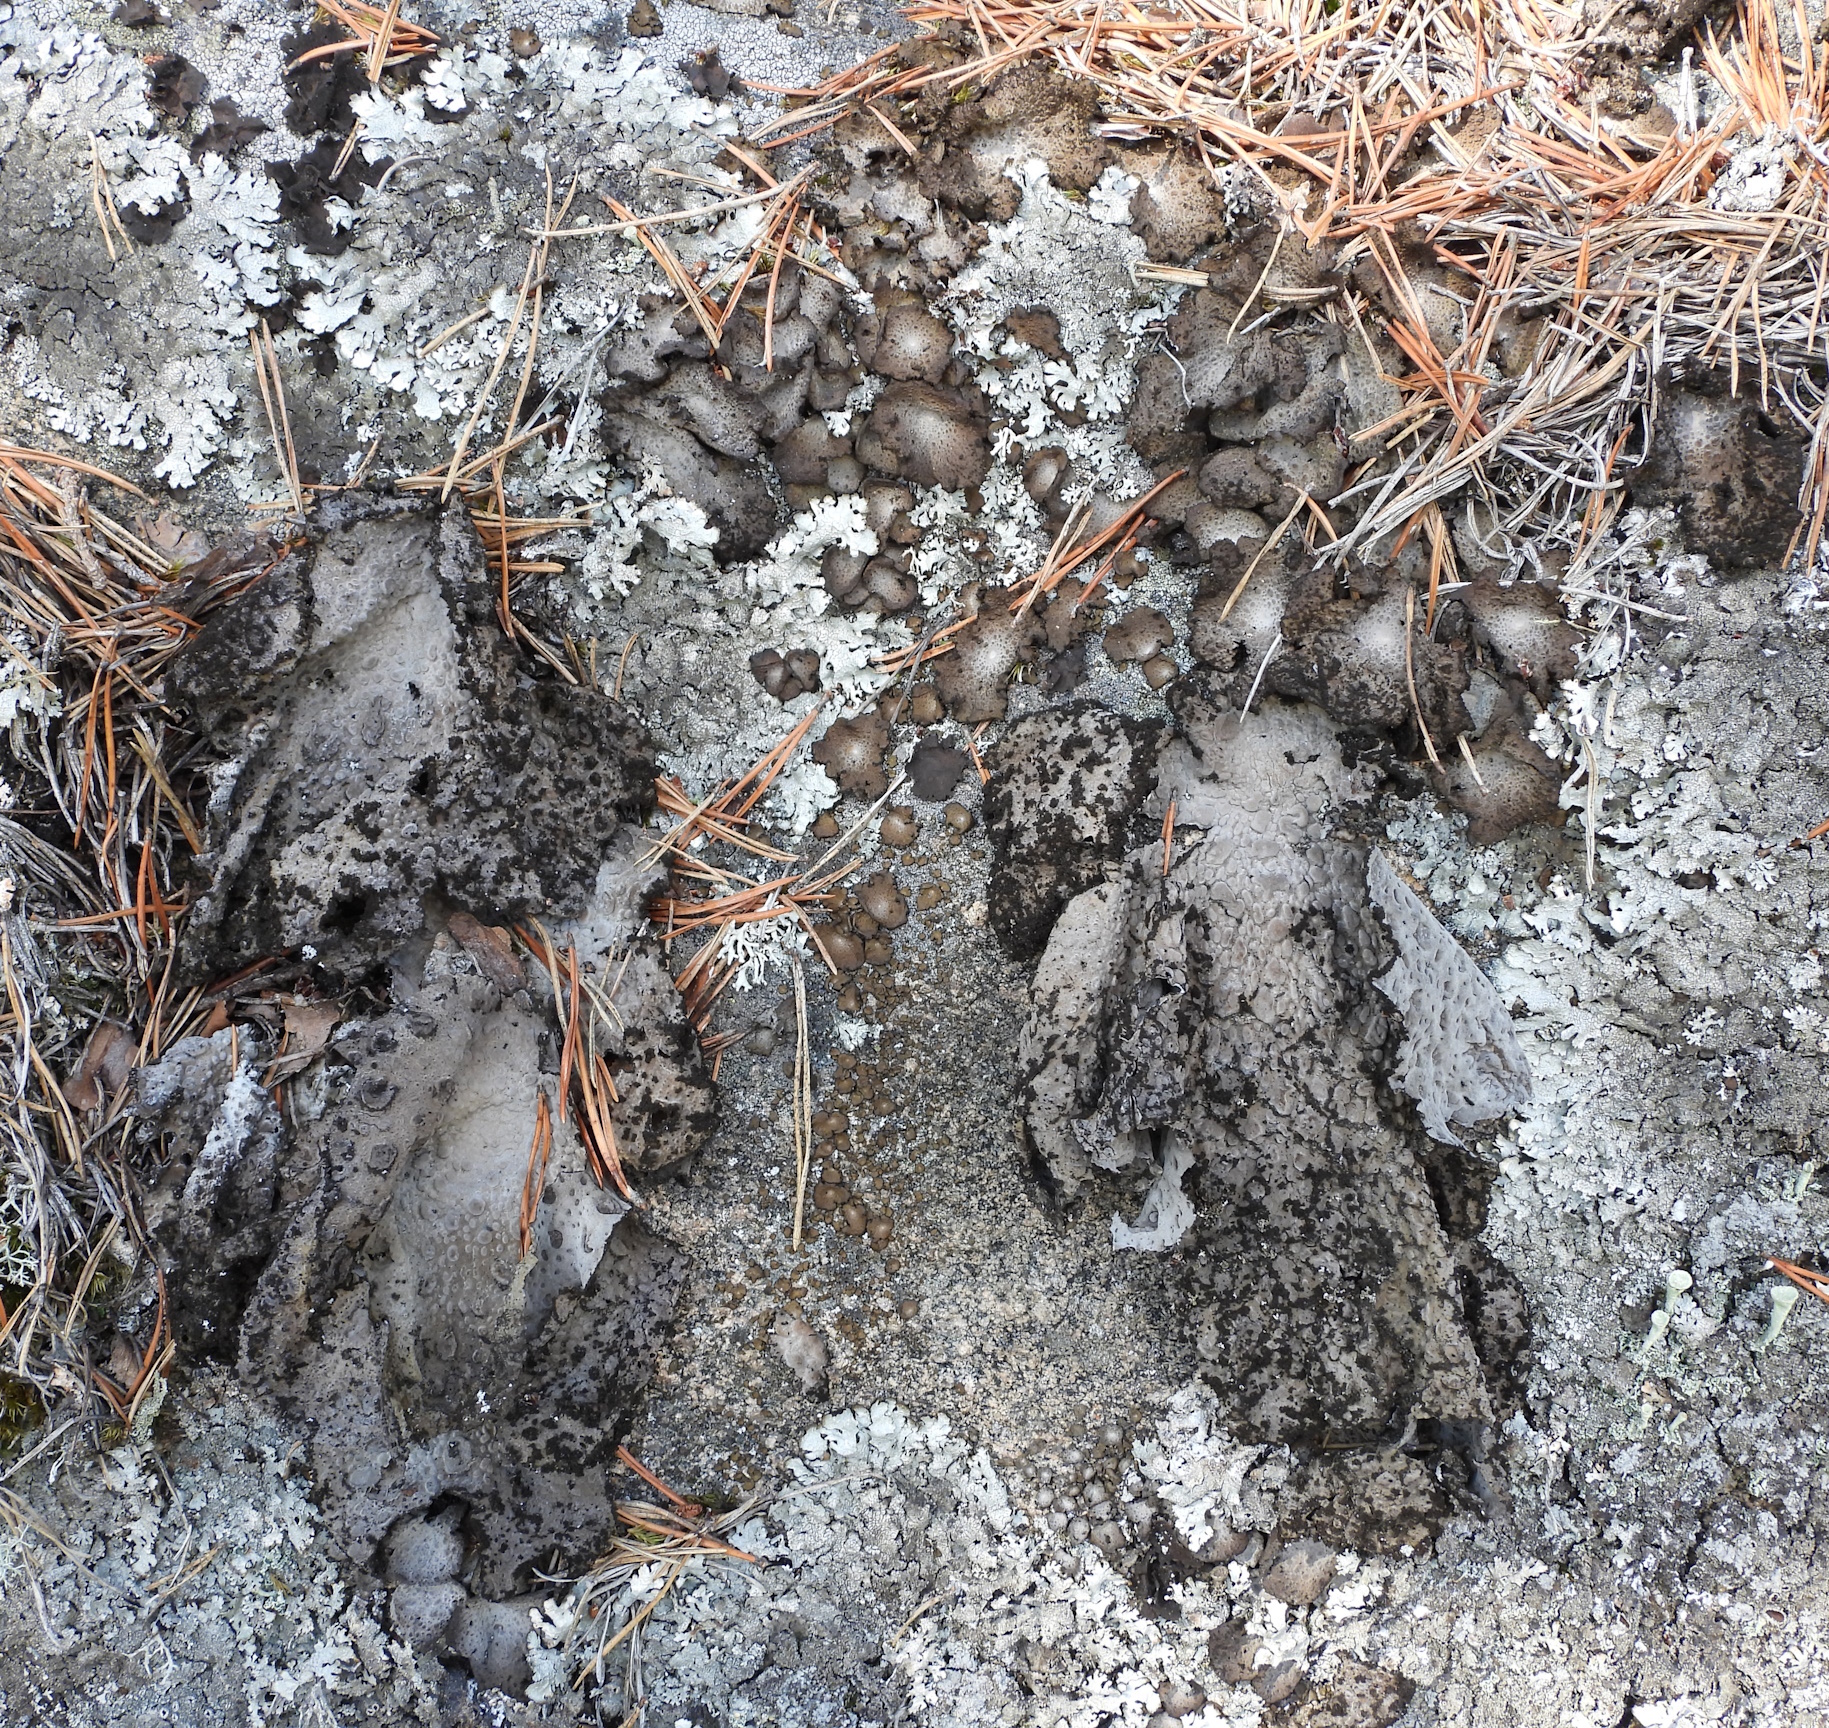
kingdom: Fungi
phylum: Ascomycota
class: Lecanoromycetes
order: Umbilicariales
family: Umbilicariaceae
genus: Lasallia
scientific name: Lasallia pustulata
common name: Blistered toadskin lichen
